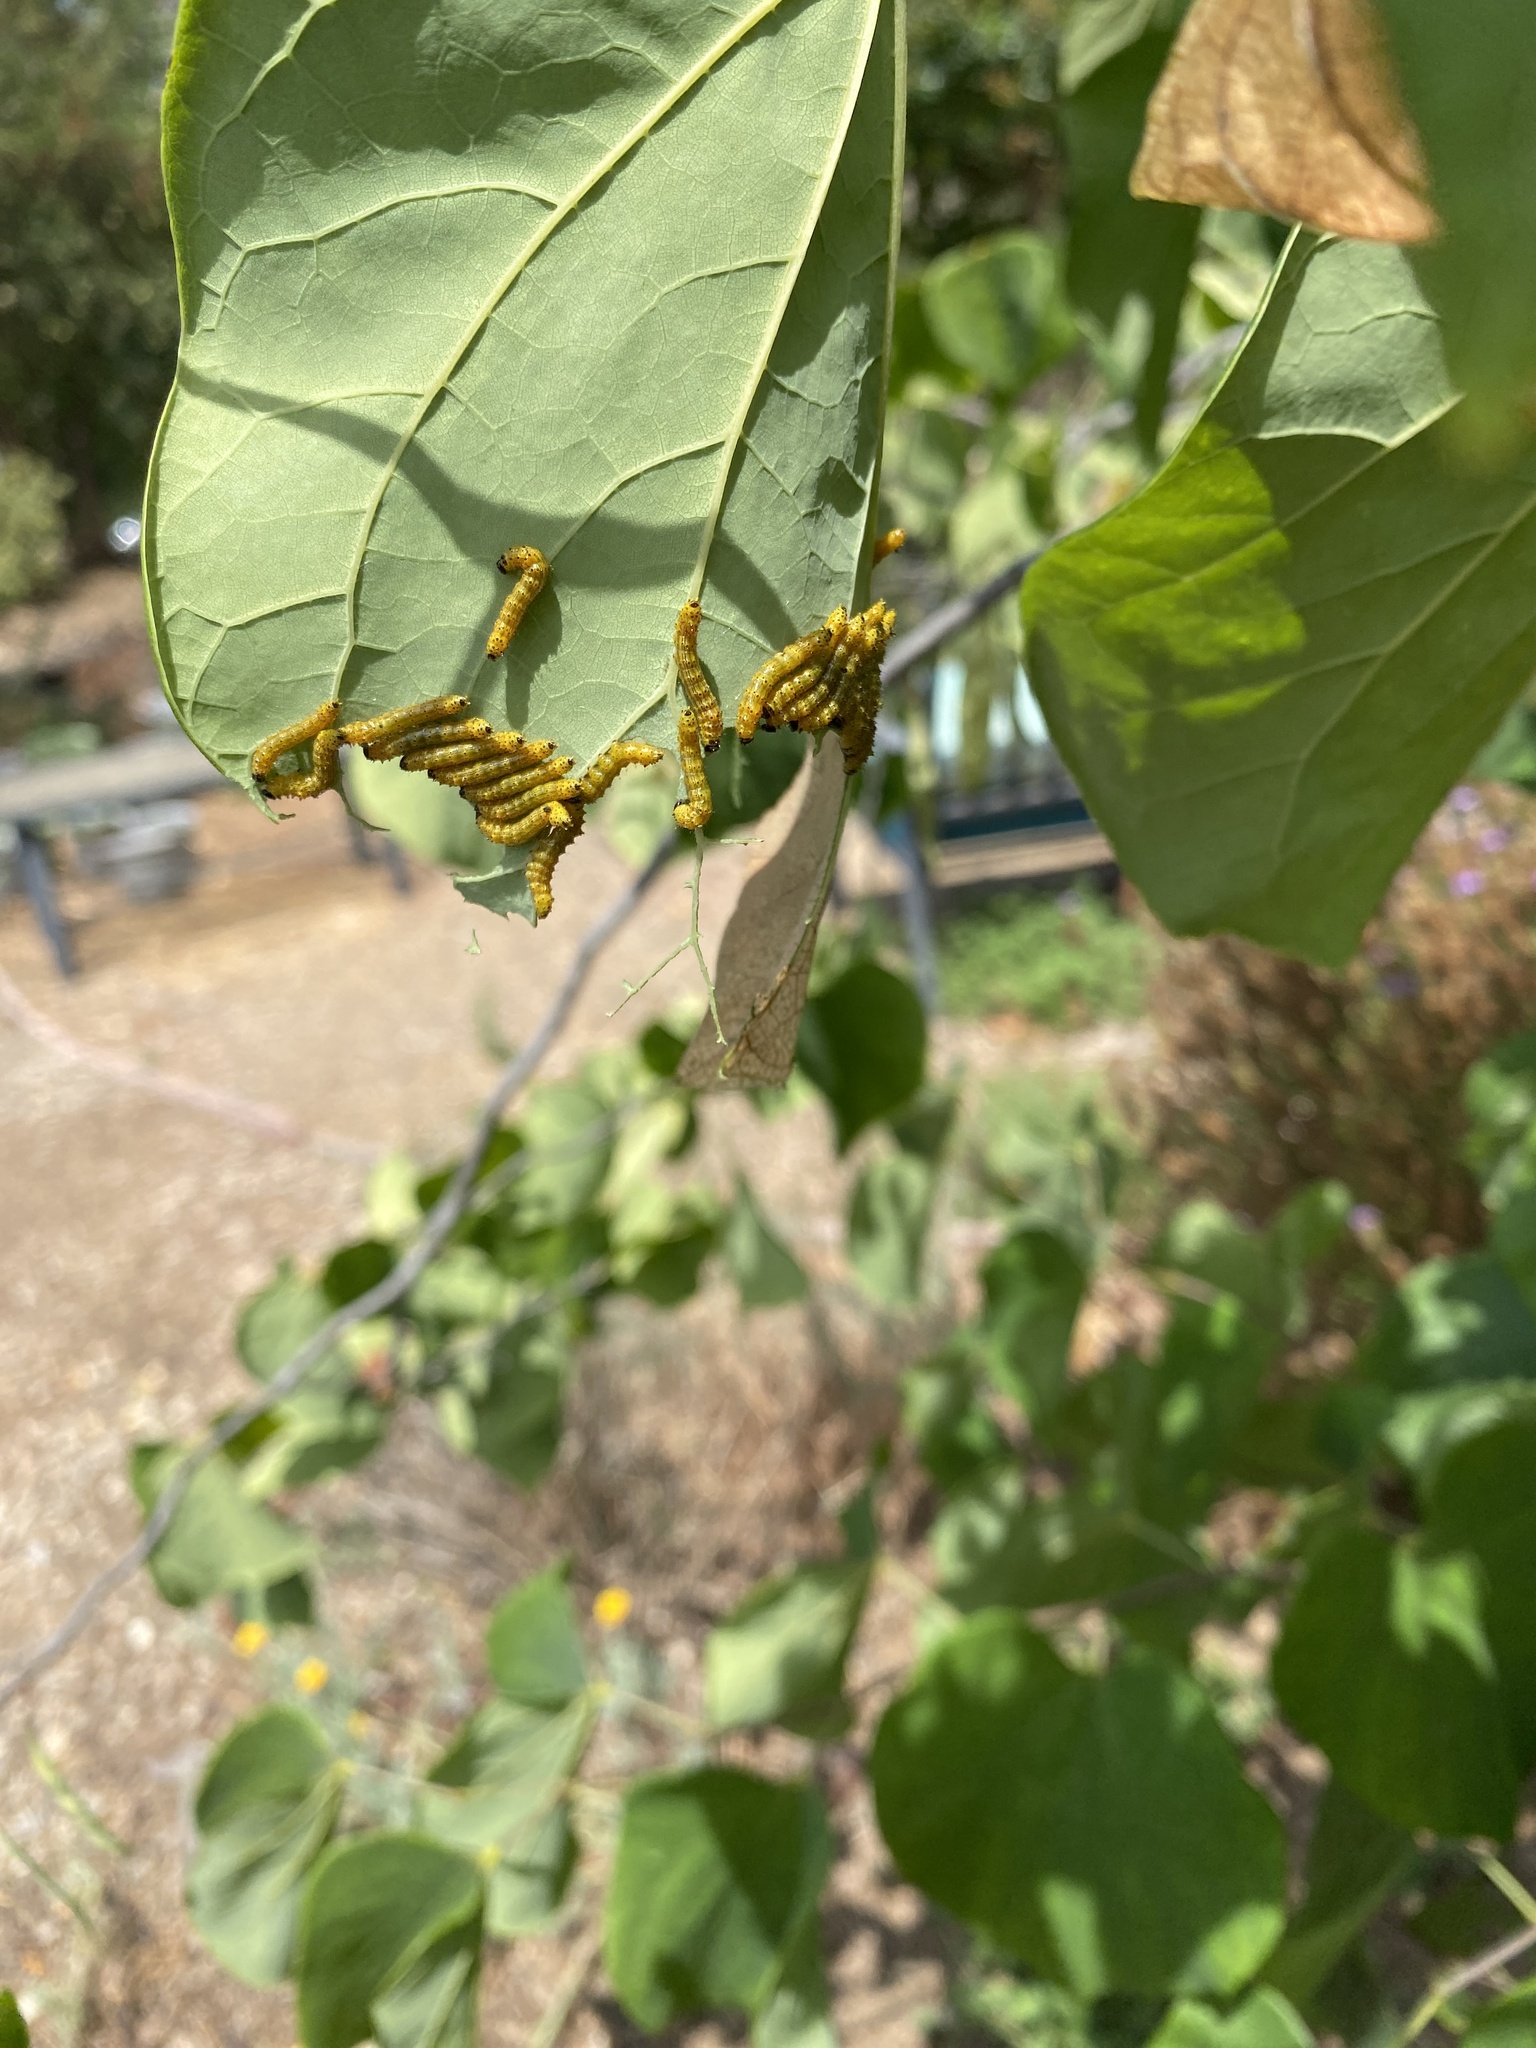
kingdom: Animalia
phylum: Arthropoda
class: Insecta
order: Lepidoptera
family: Notodontidae
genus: Schizura
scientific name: Schizura
